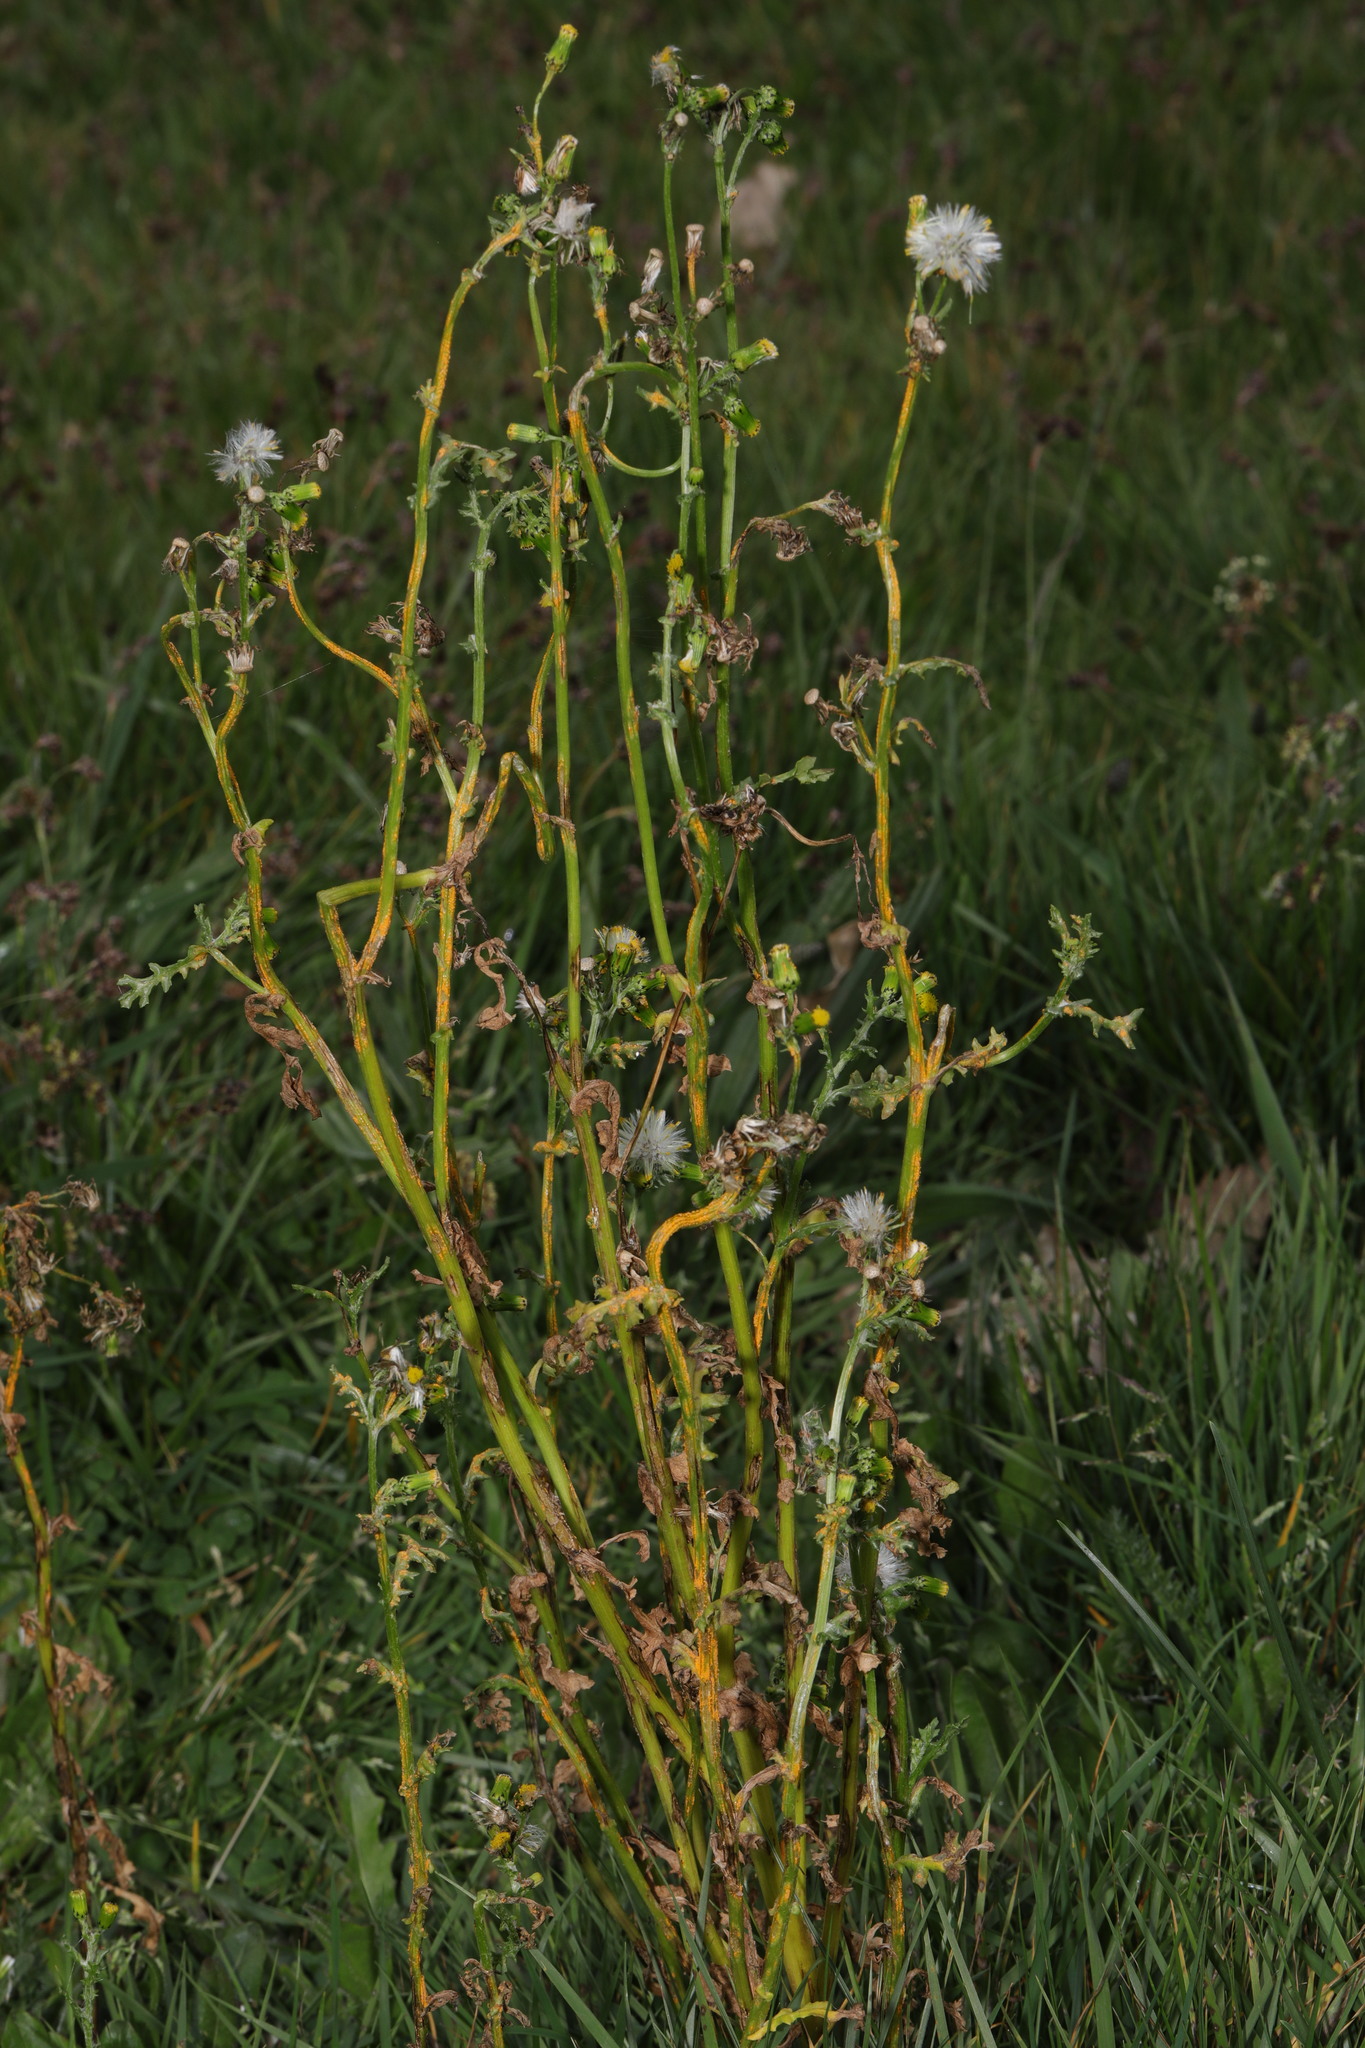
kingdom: Plantae
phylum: Tracheophyta
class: Magnoliopsida
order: Asterales
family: Asteraceae
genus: Senecio
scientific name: Senecio vulgaris
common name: Old-man-in-the-spring
